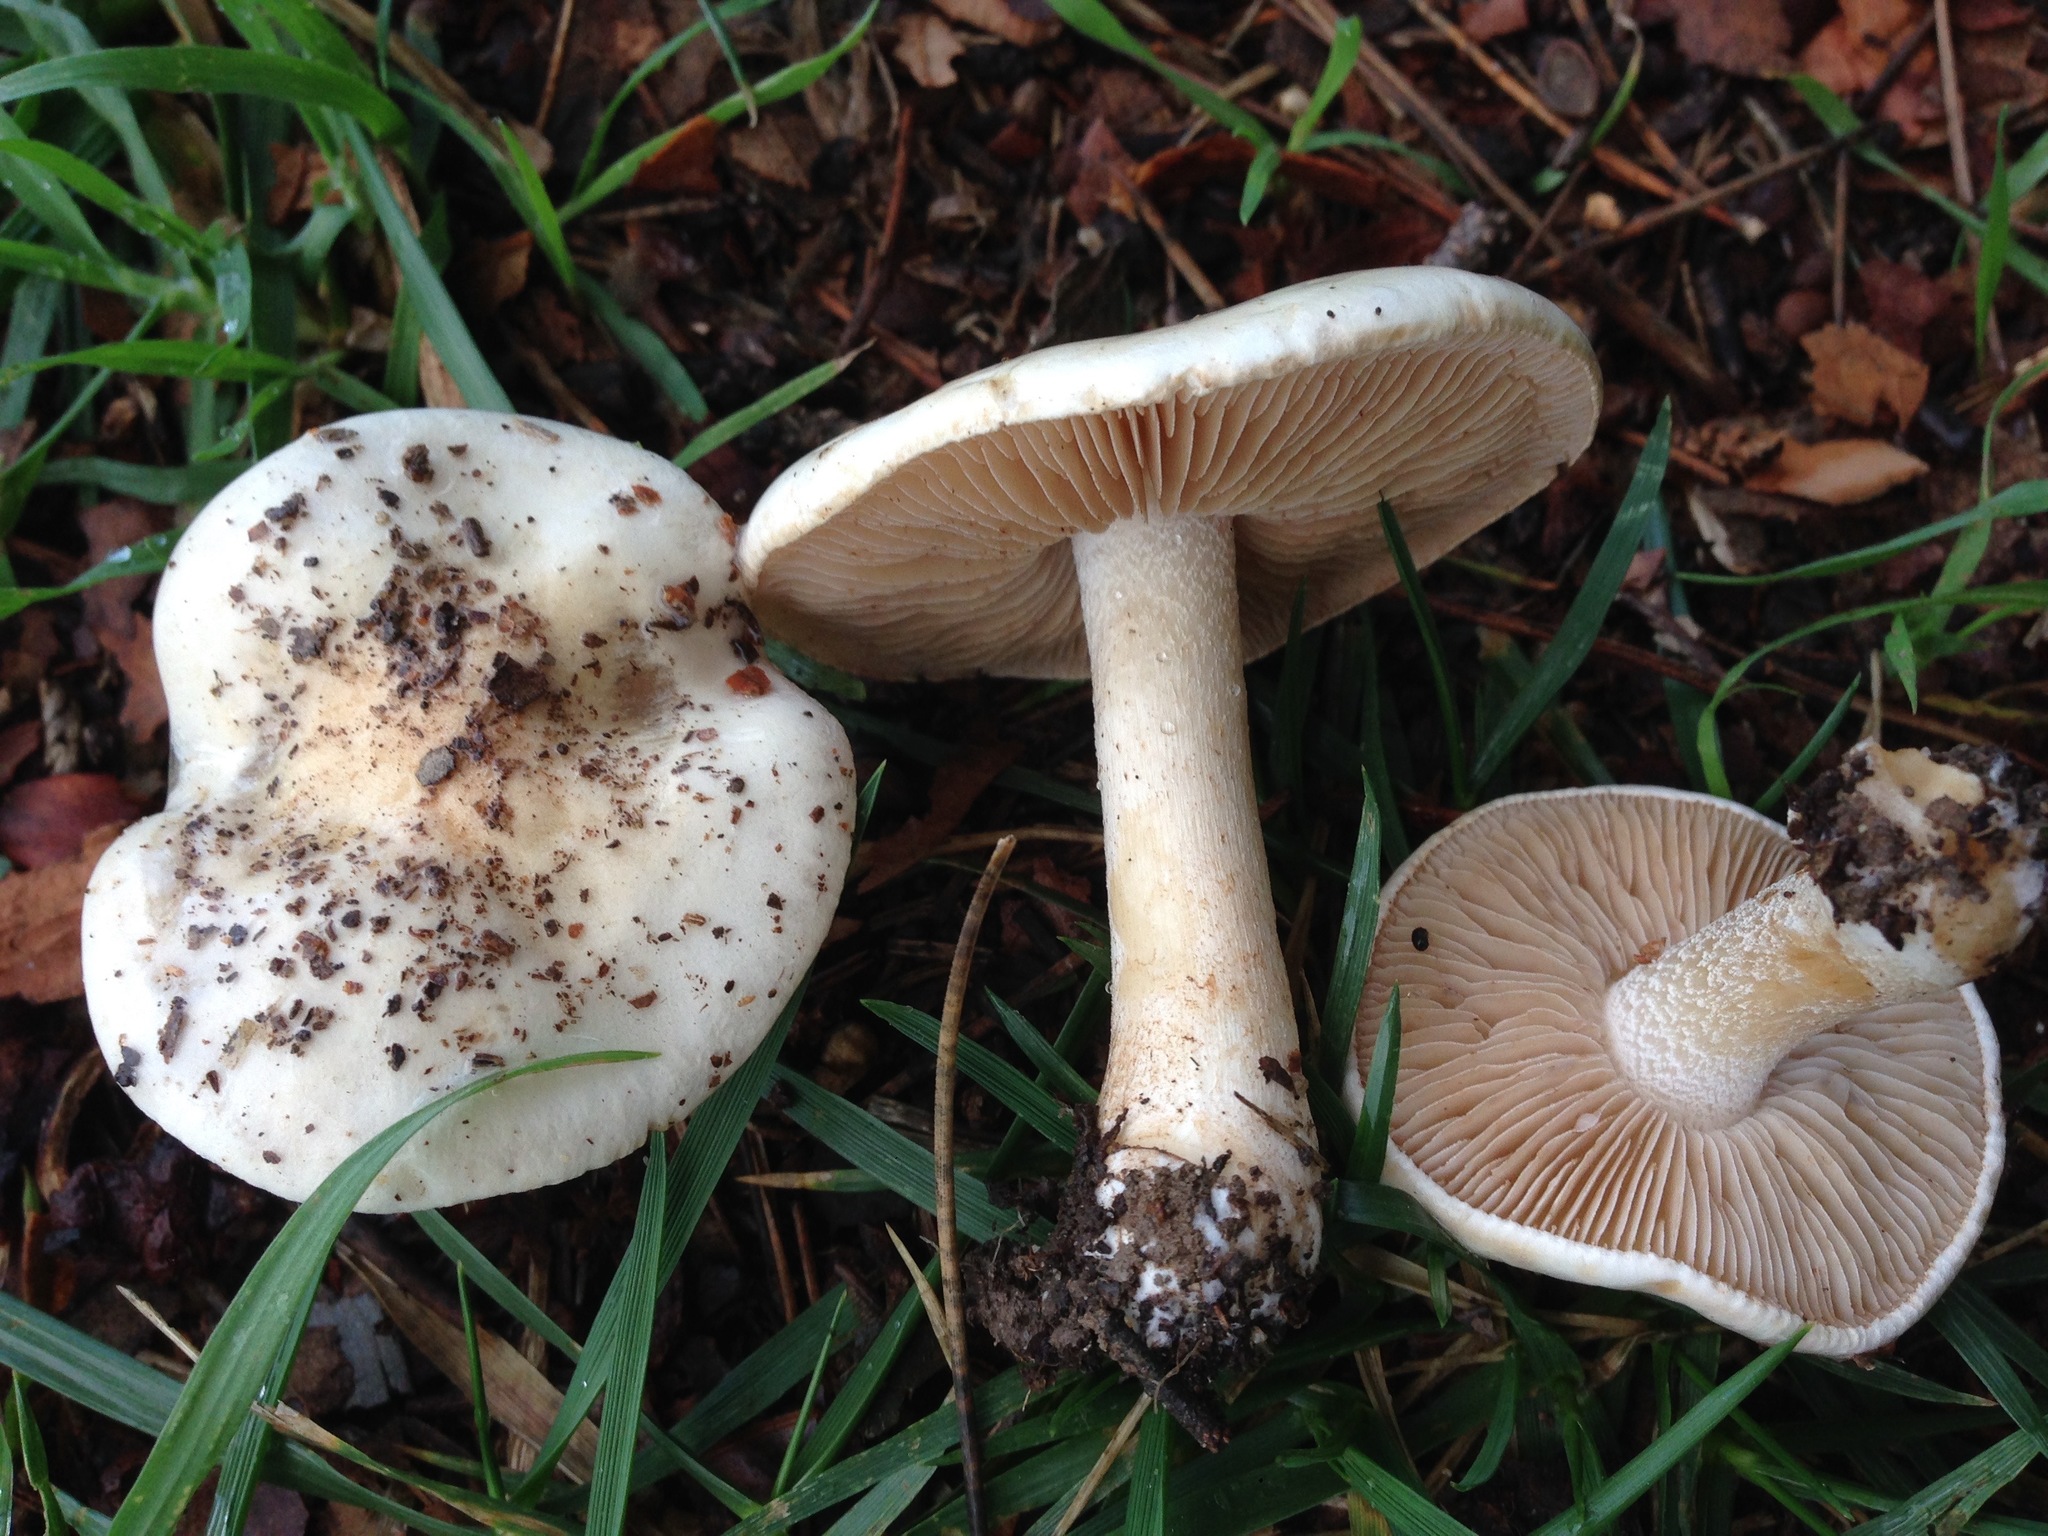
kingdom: Fungi
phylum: Basidiomycota
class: Agaricomycetes
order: Agaricales
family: Hymenogastraceae
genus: Hebeloma
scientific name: Hebeloma crustuliniforme
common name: Poison pie
